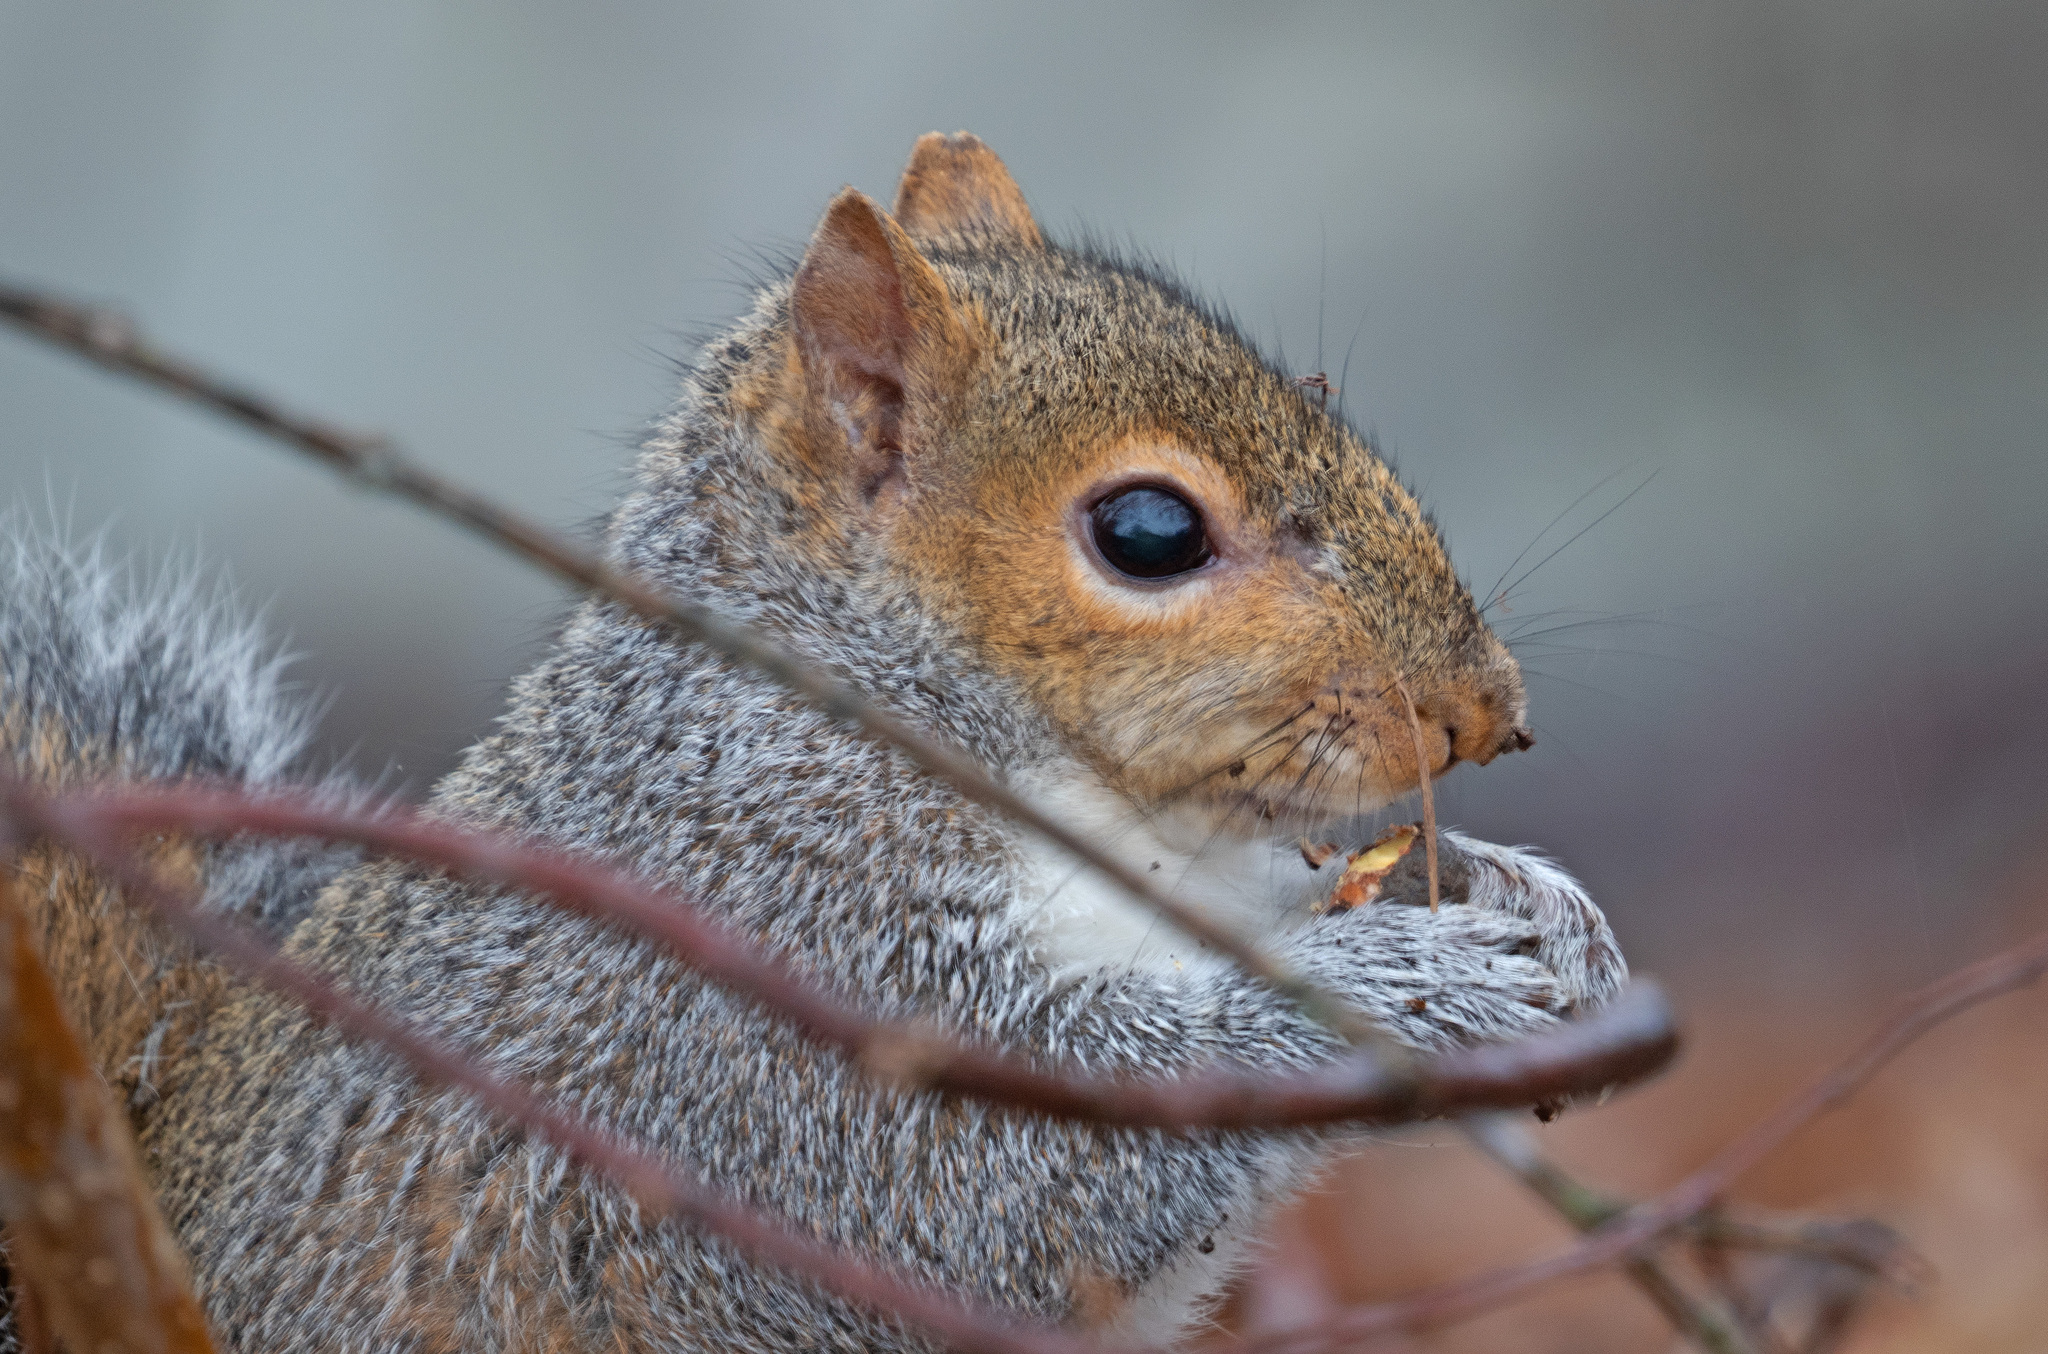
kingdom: Animalia
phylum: Chordata
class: Mammalia
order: Rodentia
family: Sciuridae
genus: Sciurus
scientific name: Sciurus carolinensis
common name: Eastern gray squirrel
